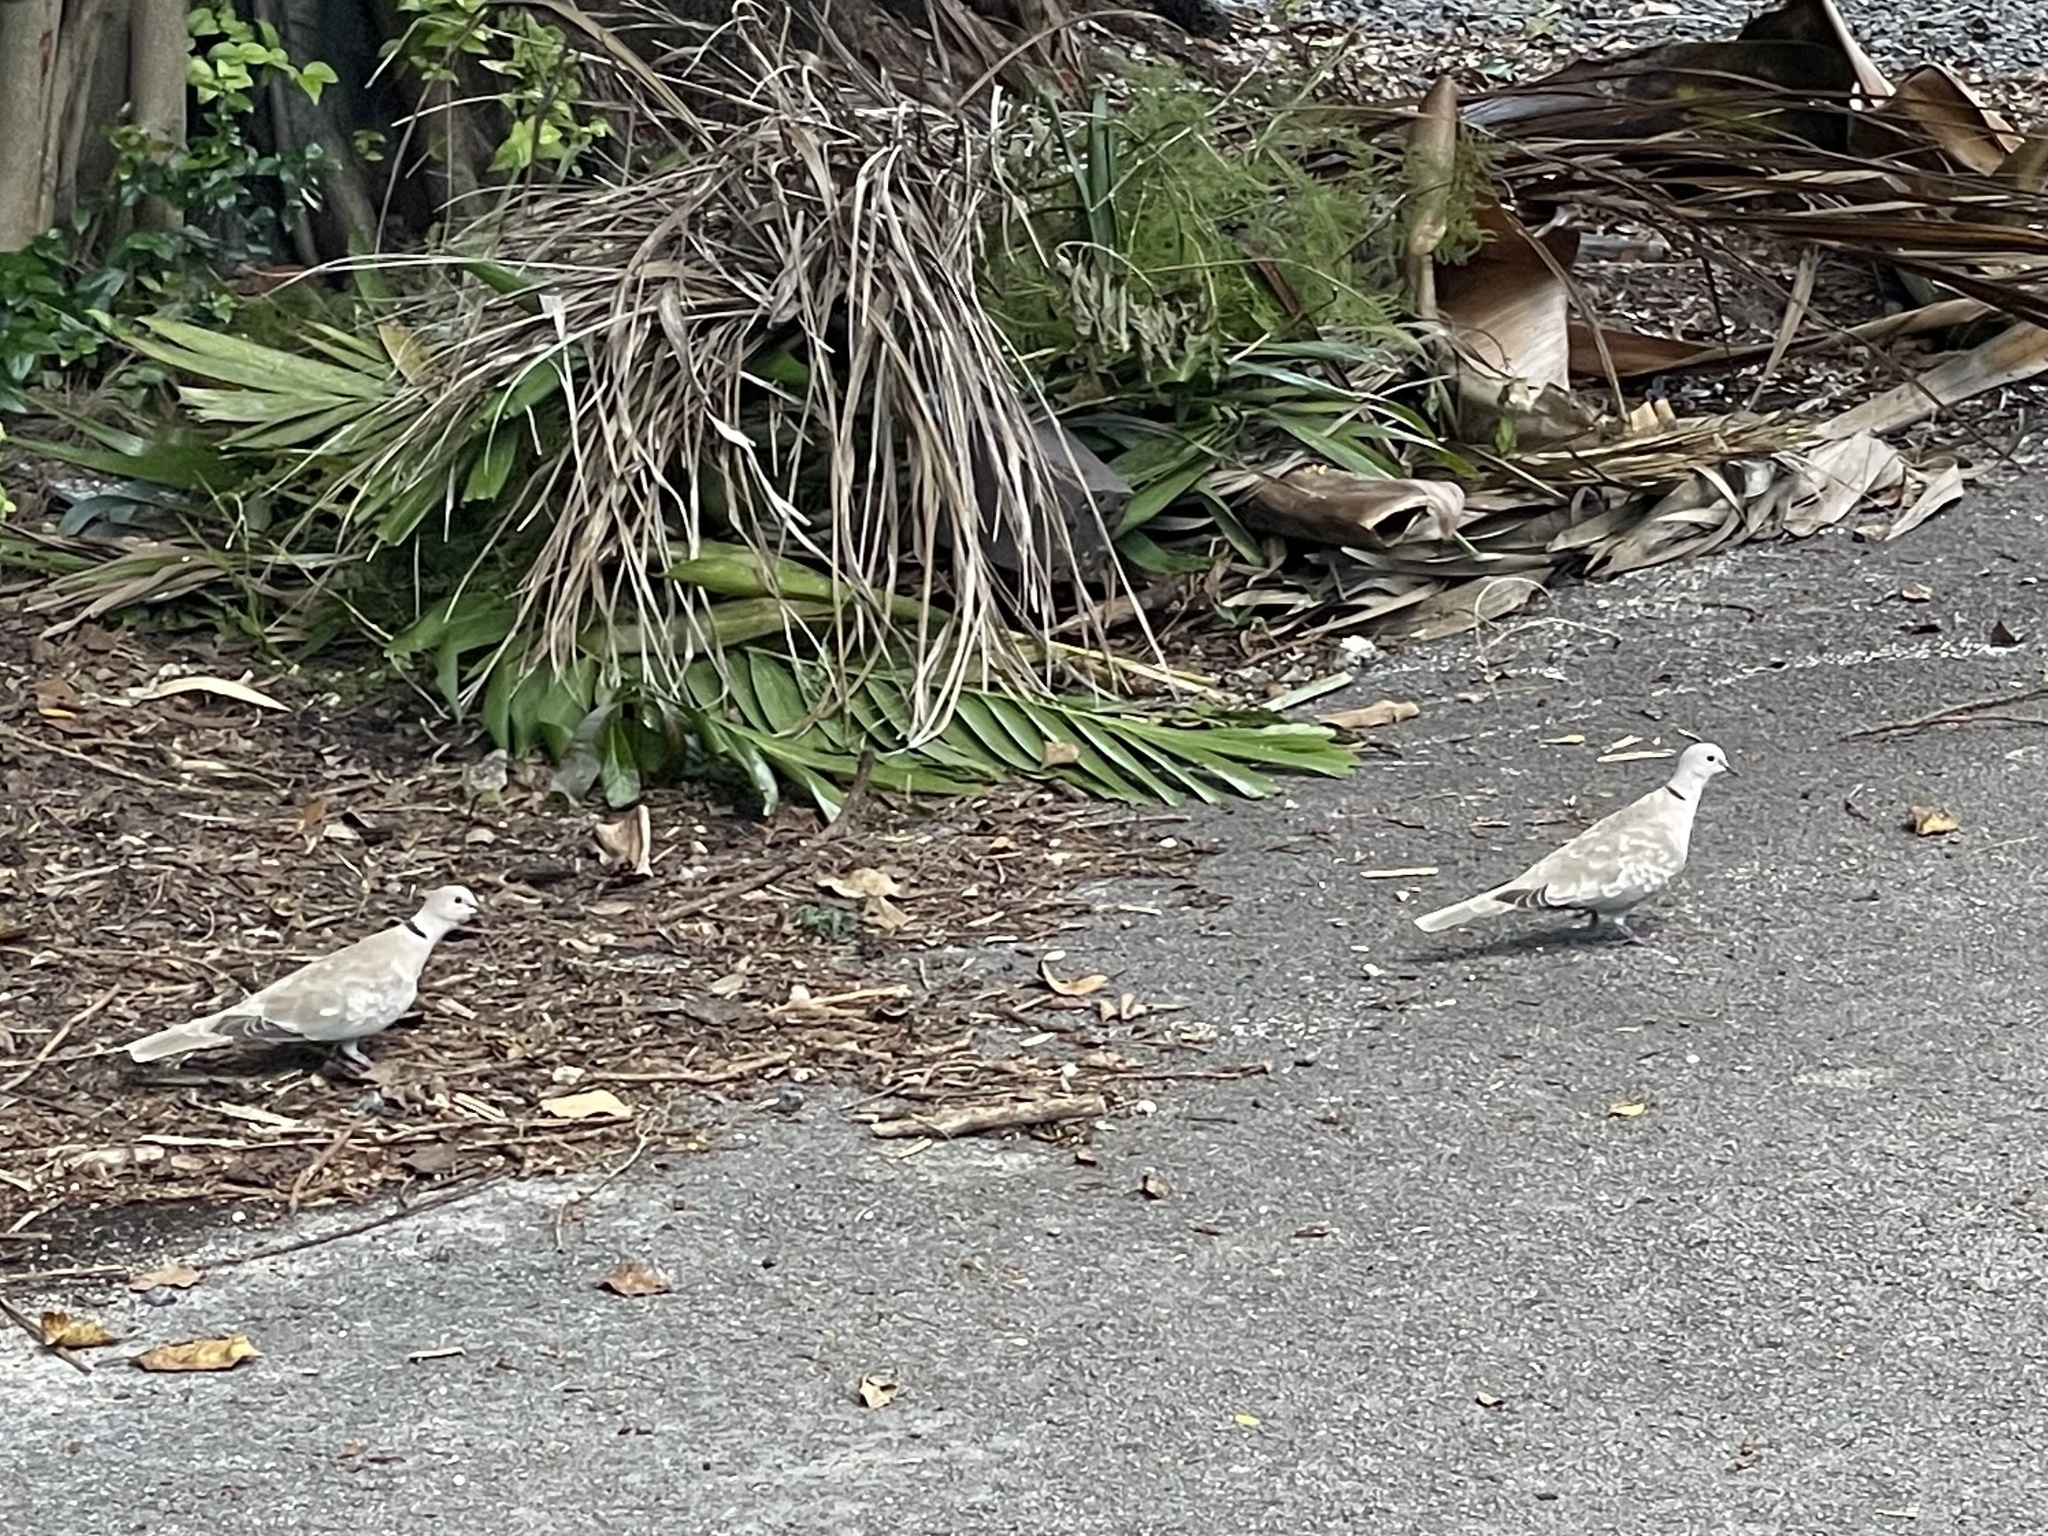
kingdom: Animalia
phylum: Chordata
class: Aves
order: Columbiformes
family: Columbidae
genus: Streptopelia
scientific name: Streptopelia decaocto
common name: Eurasian collared dove
